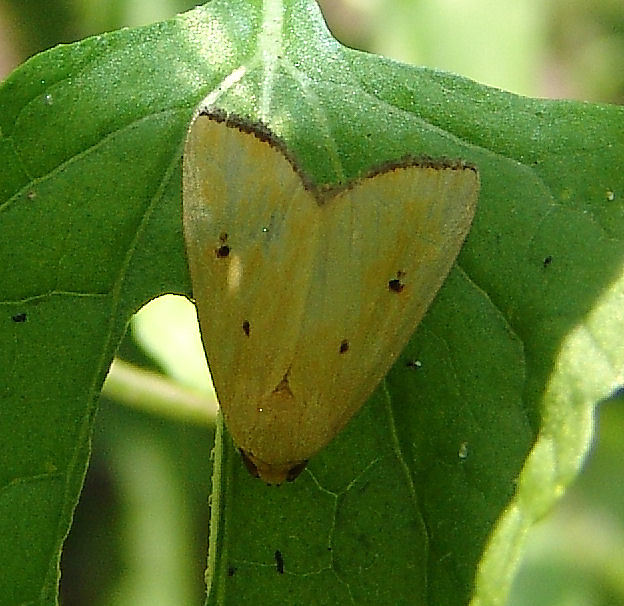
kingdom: Animalia
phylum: Arthropoda
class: Insecta
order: Lepidoptera
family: Noctuidae
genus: Marimatha
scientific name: Marimatha nigrofimbria
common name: Black-bordered lemon moth
